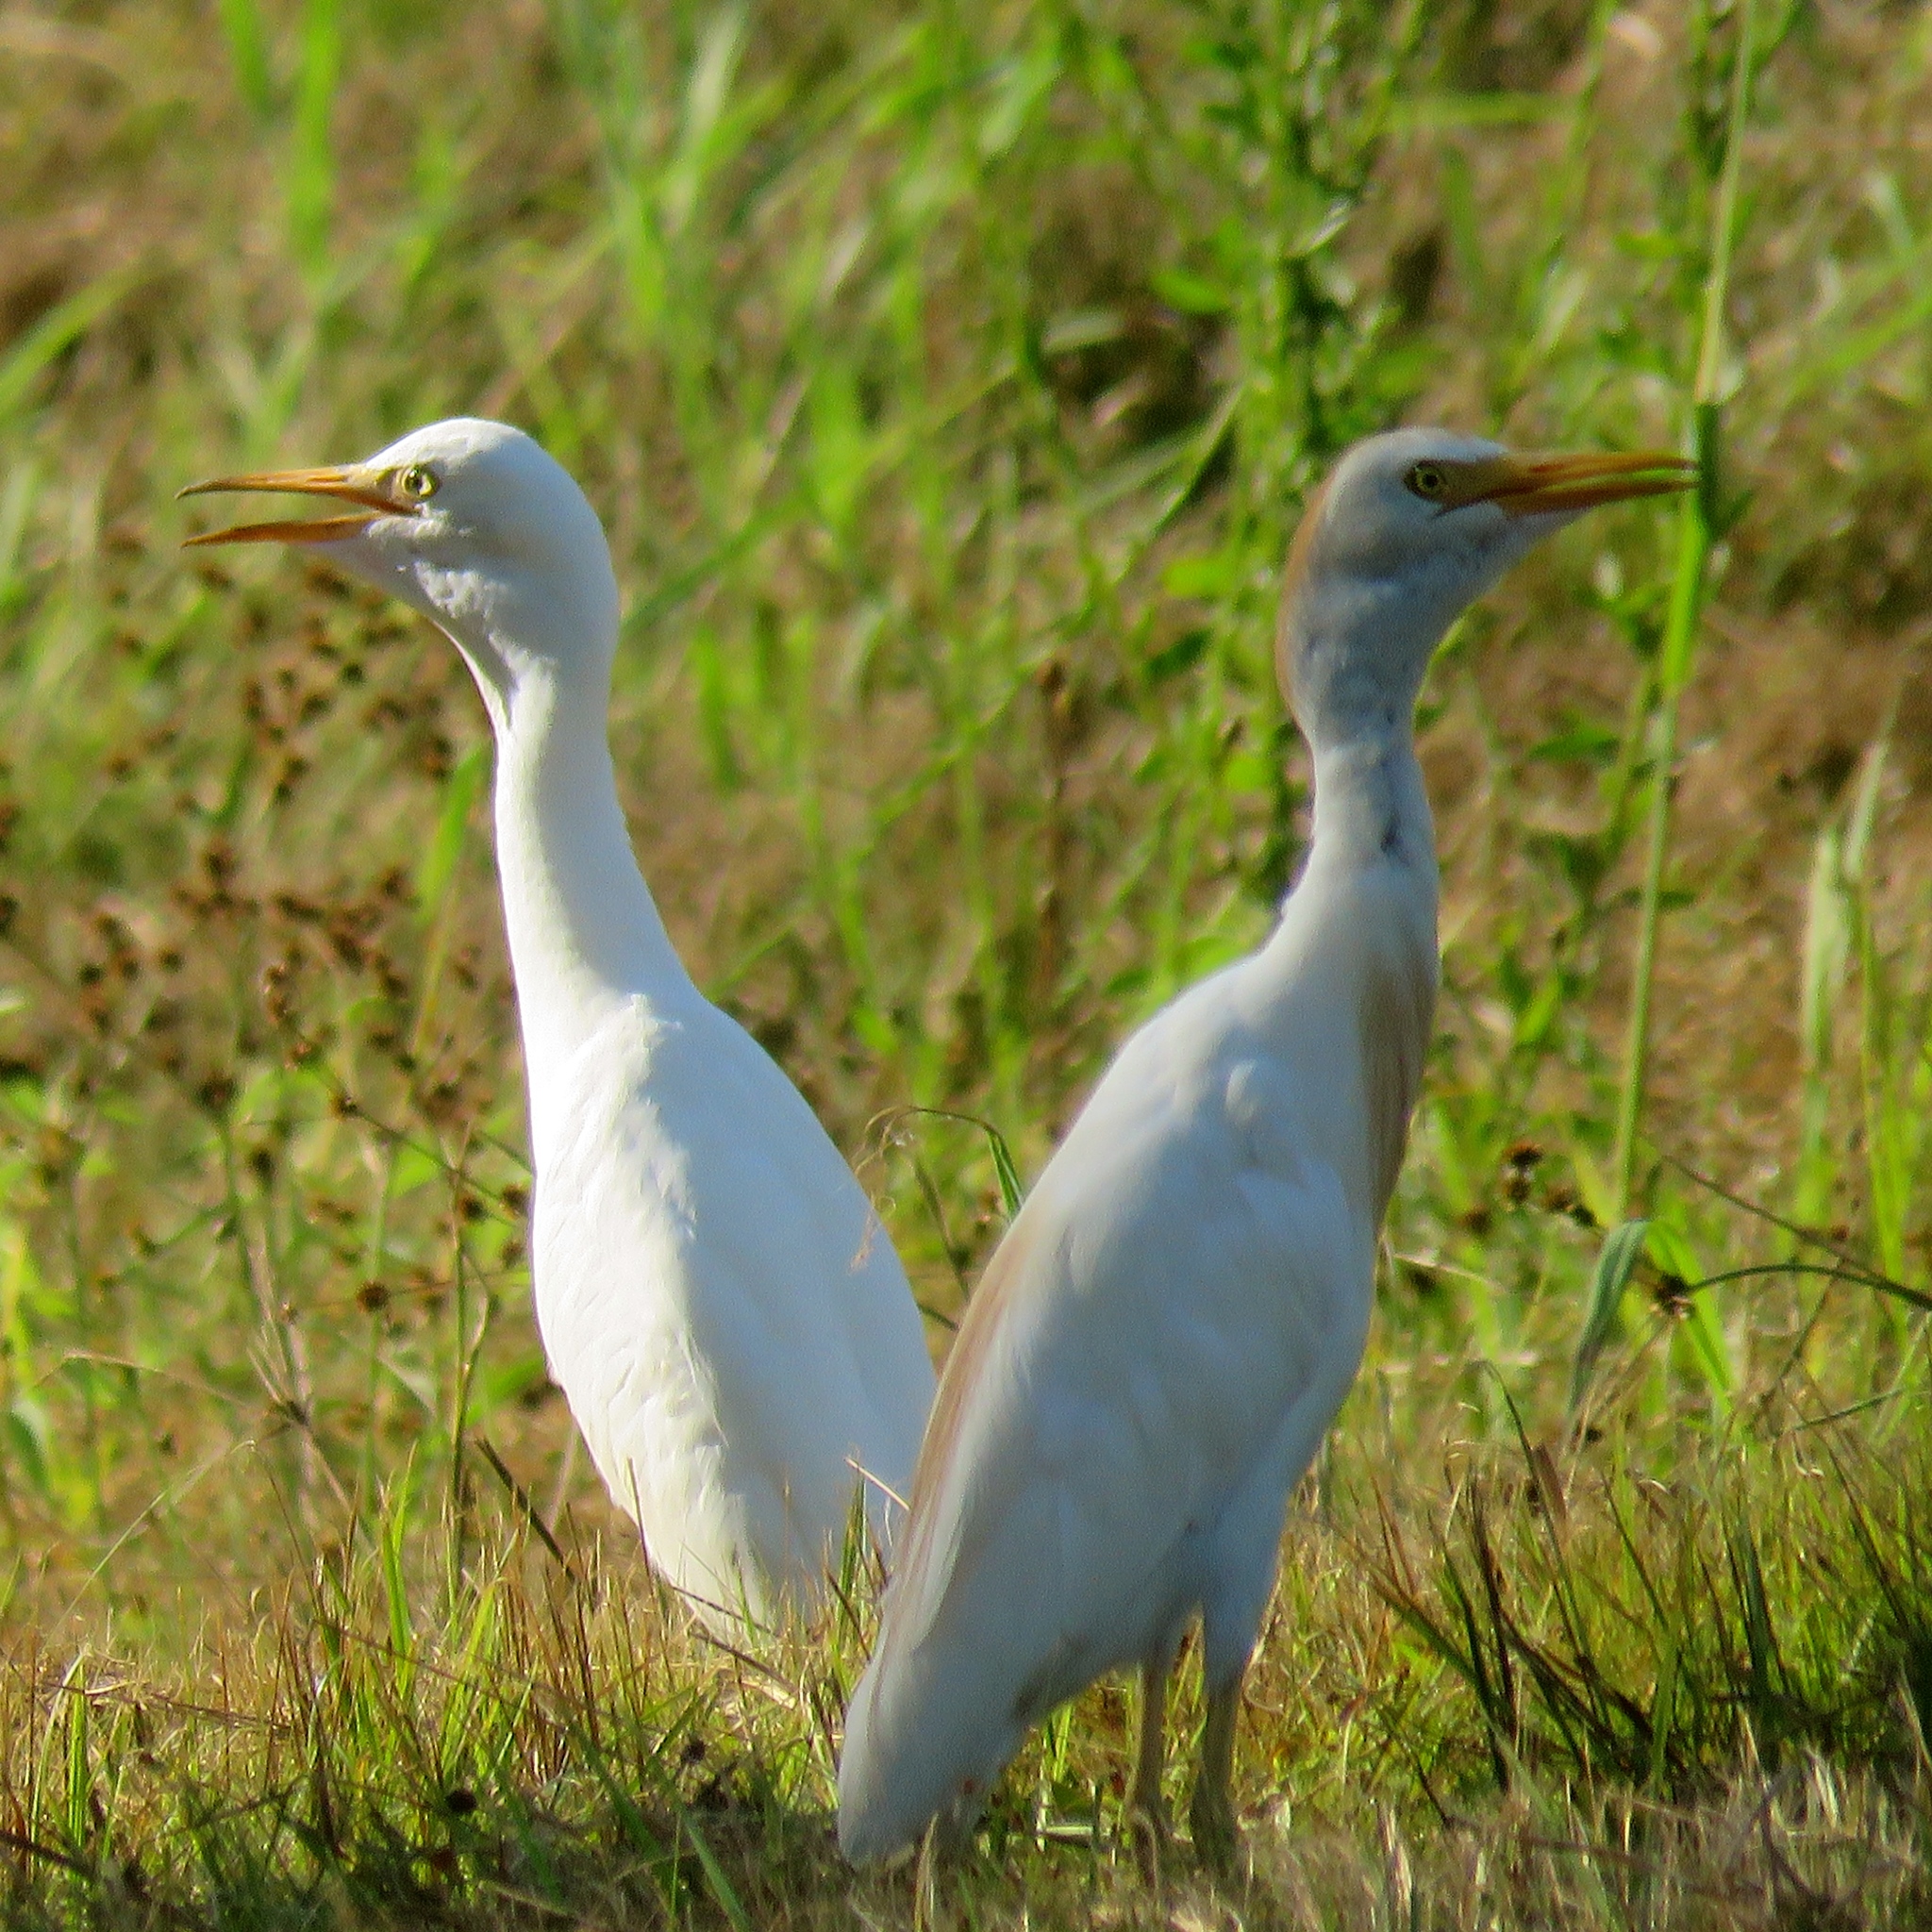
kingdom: Animalia
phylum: Chordata
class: Aves
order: Pelecaniformes
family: Ardeidae
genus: Bubulcus
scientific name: Bubulcus ibis
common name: Cattle egret
